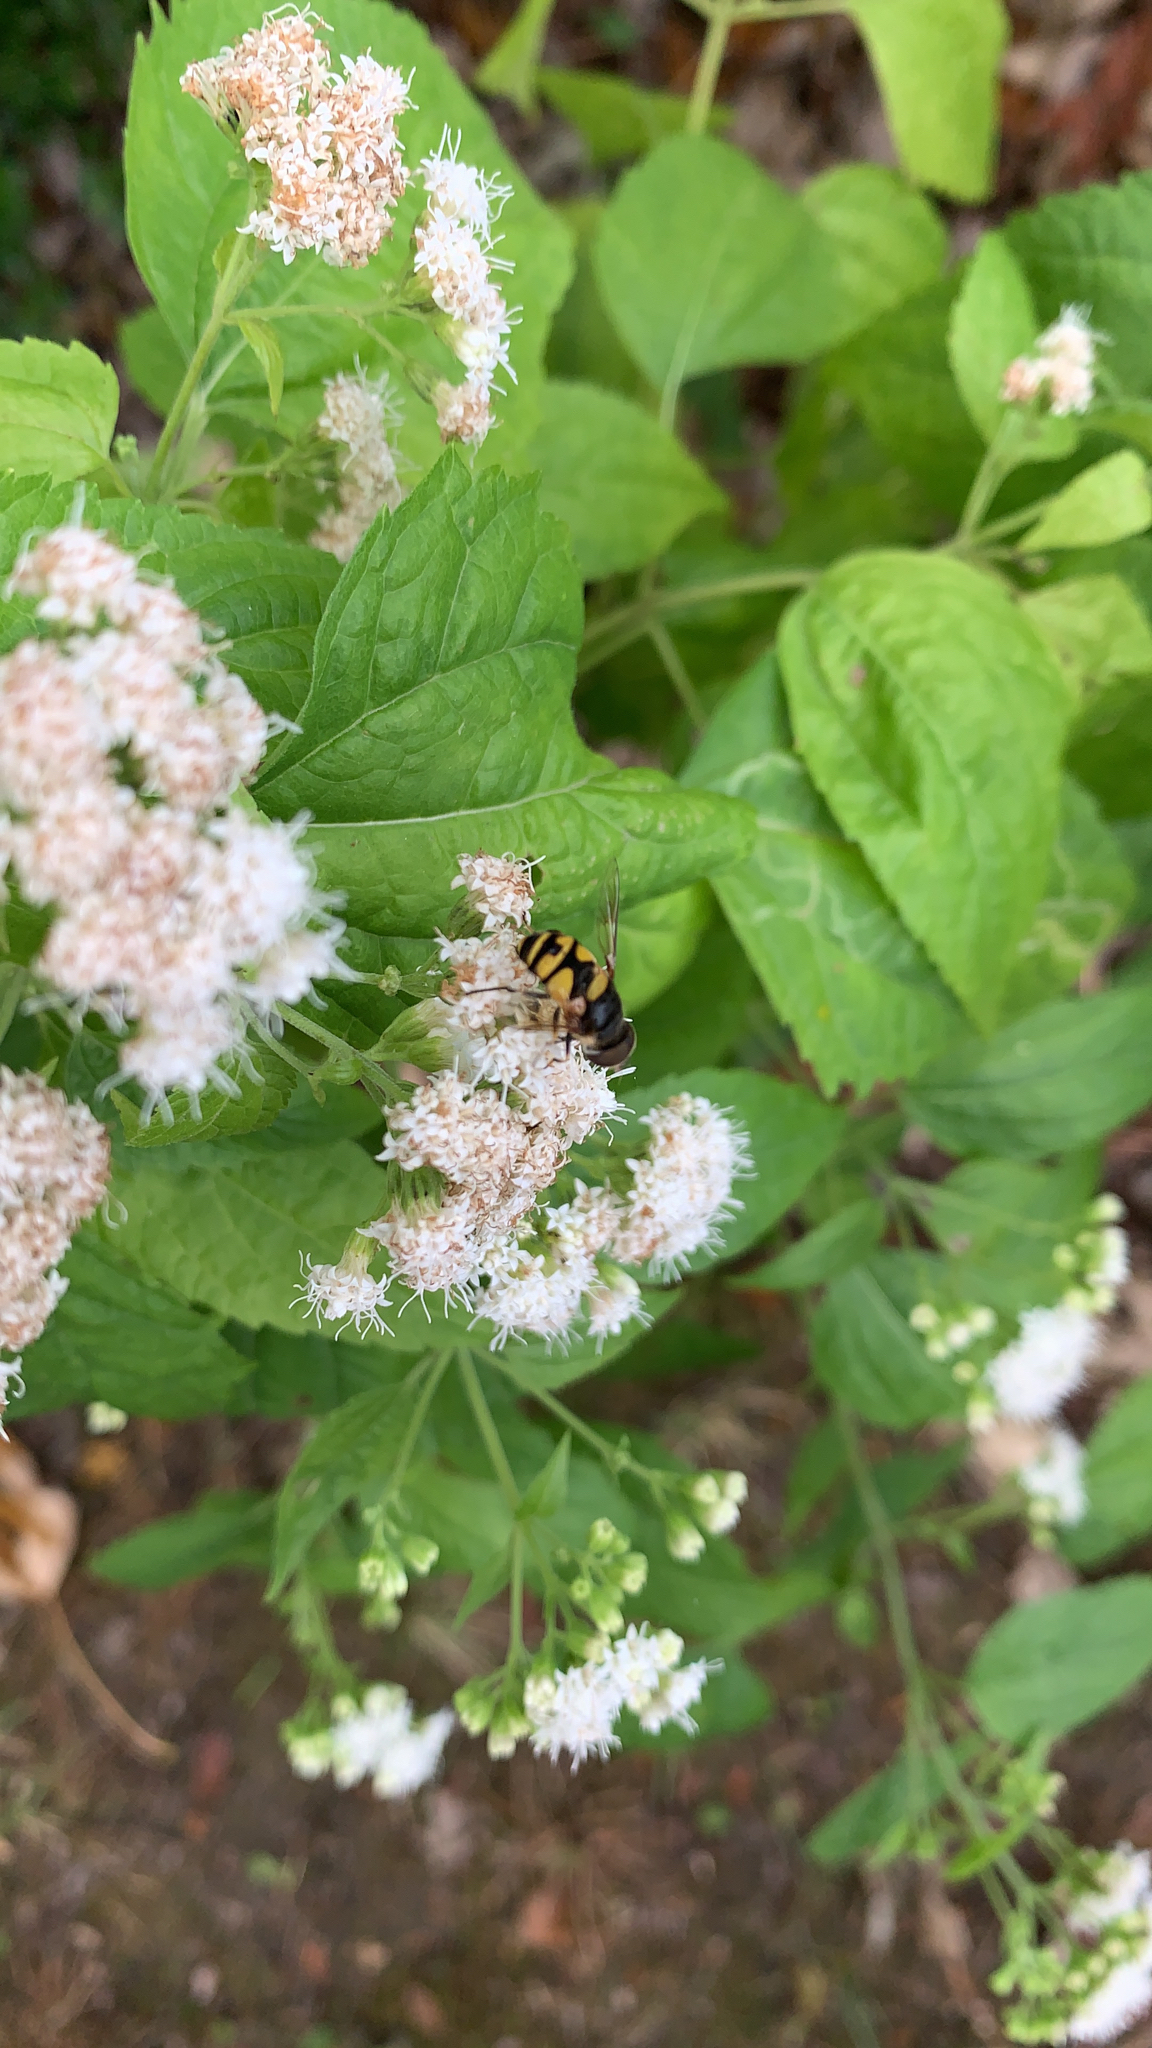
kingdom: Animalia
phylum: Arthropoda
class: Insecta
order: Diptera
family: Syrphidae
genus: Eristalis
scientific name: Eristalis transversa
